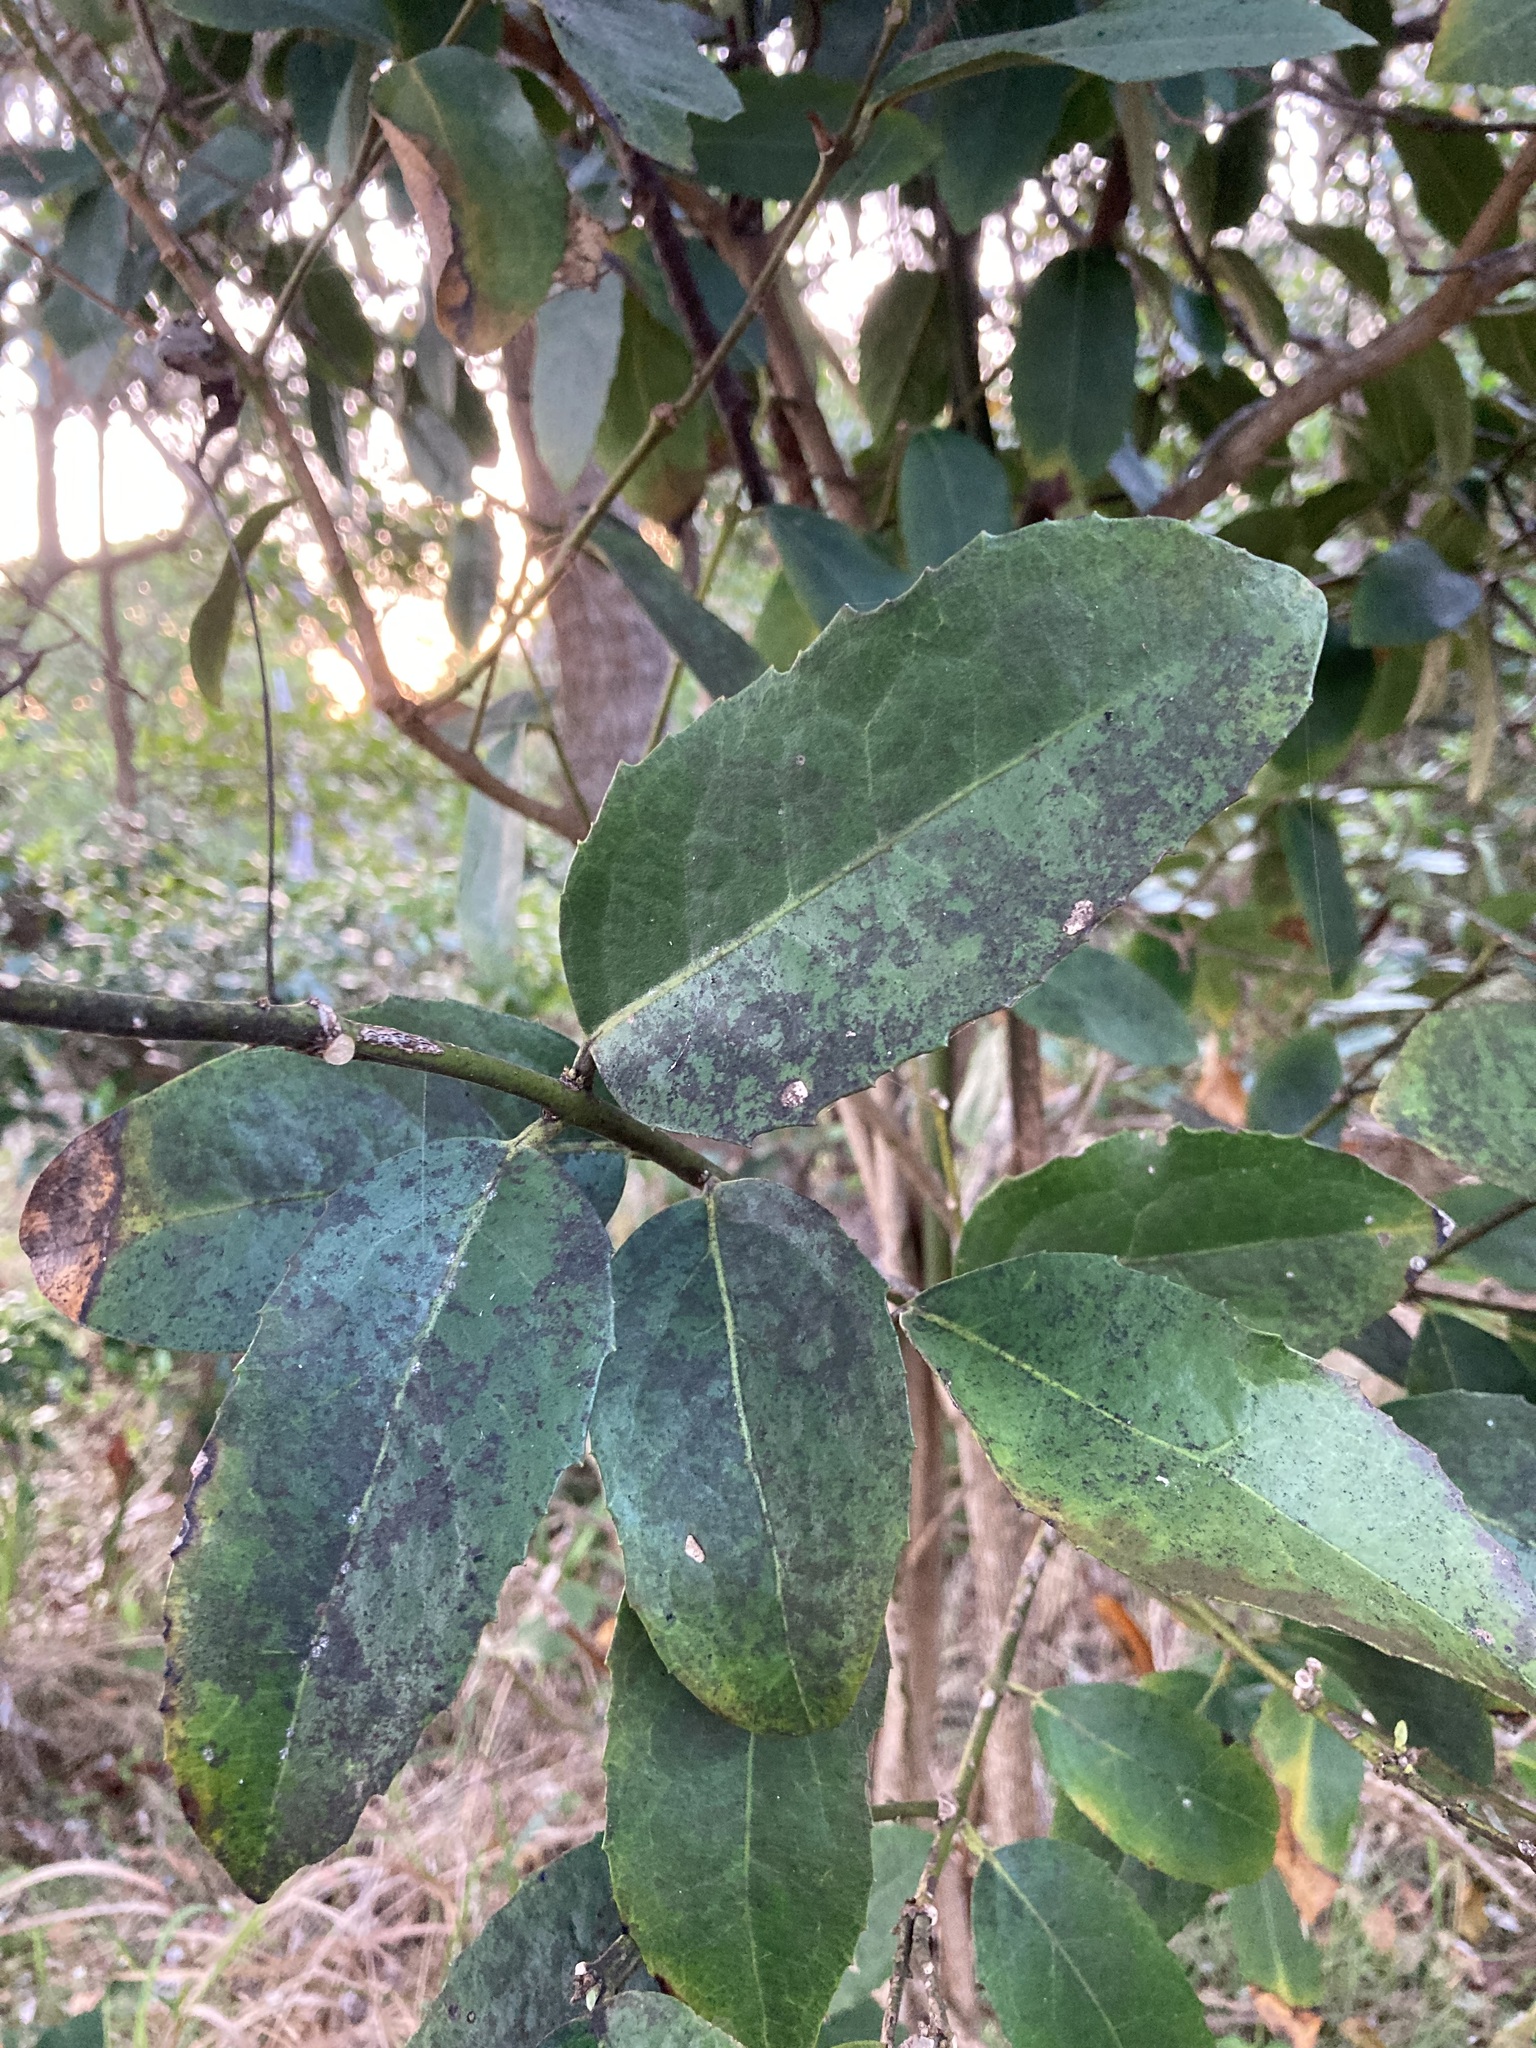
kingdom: Plantae
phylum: Tracheophyta
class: Magnoliopsida
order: Laurales
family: Monimiaceae
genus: Wilkiea
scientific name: Wilkiea hugeliana
